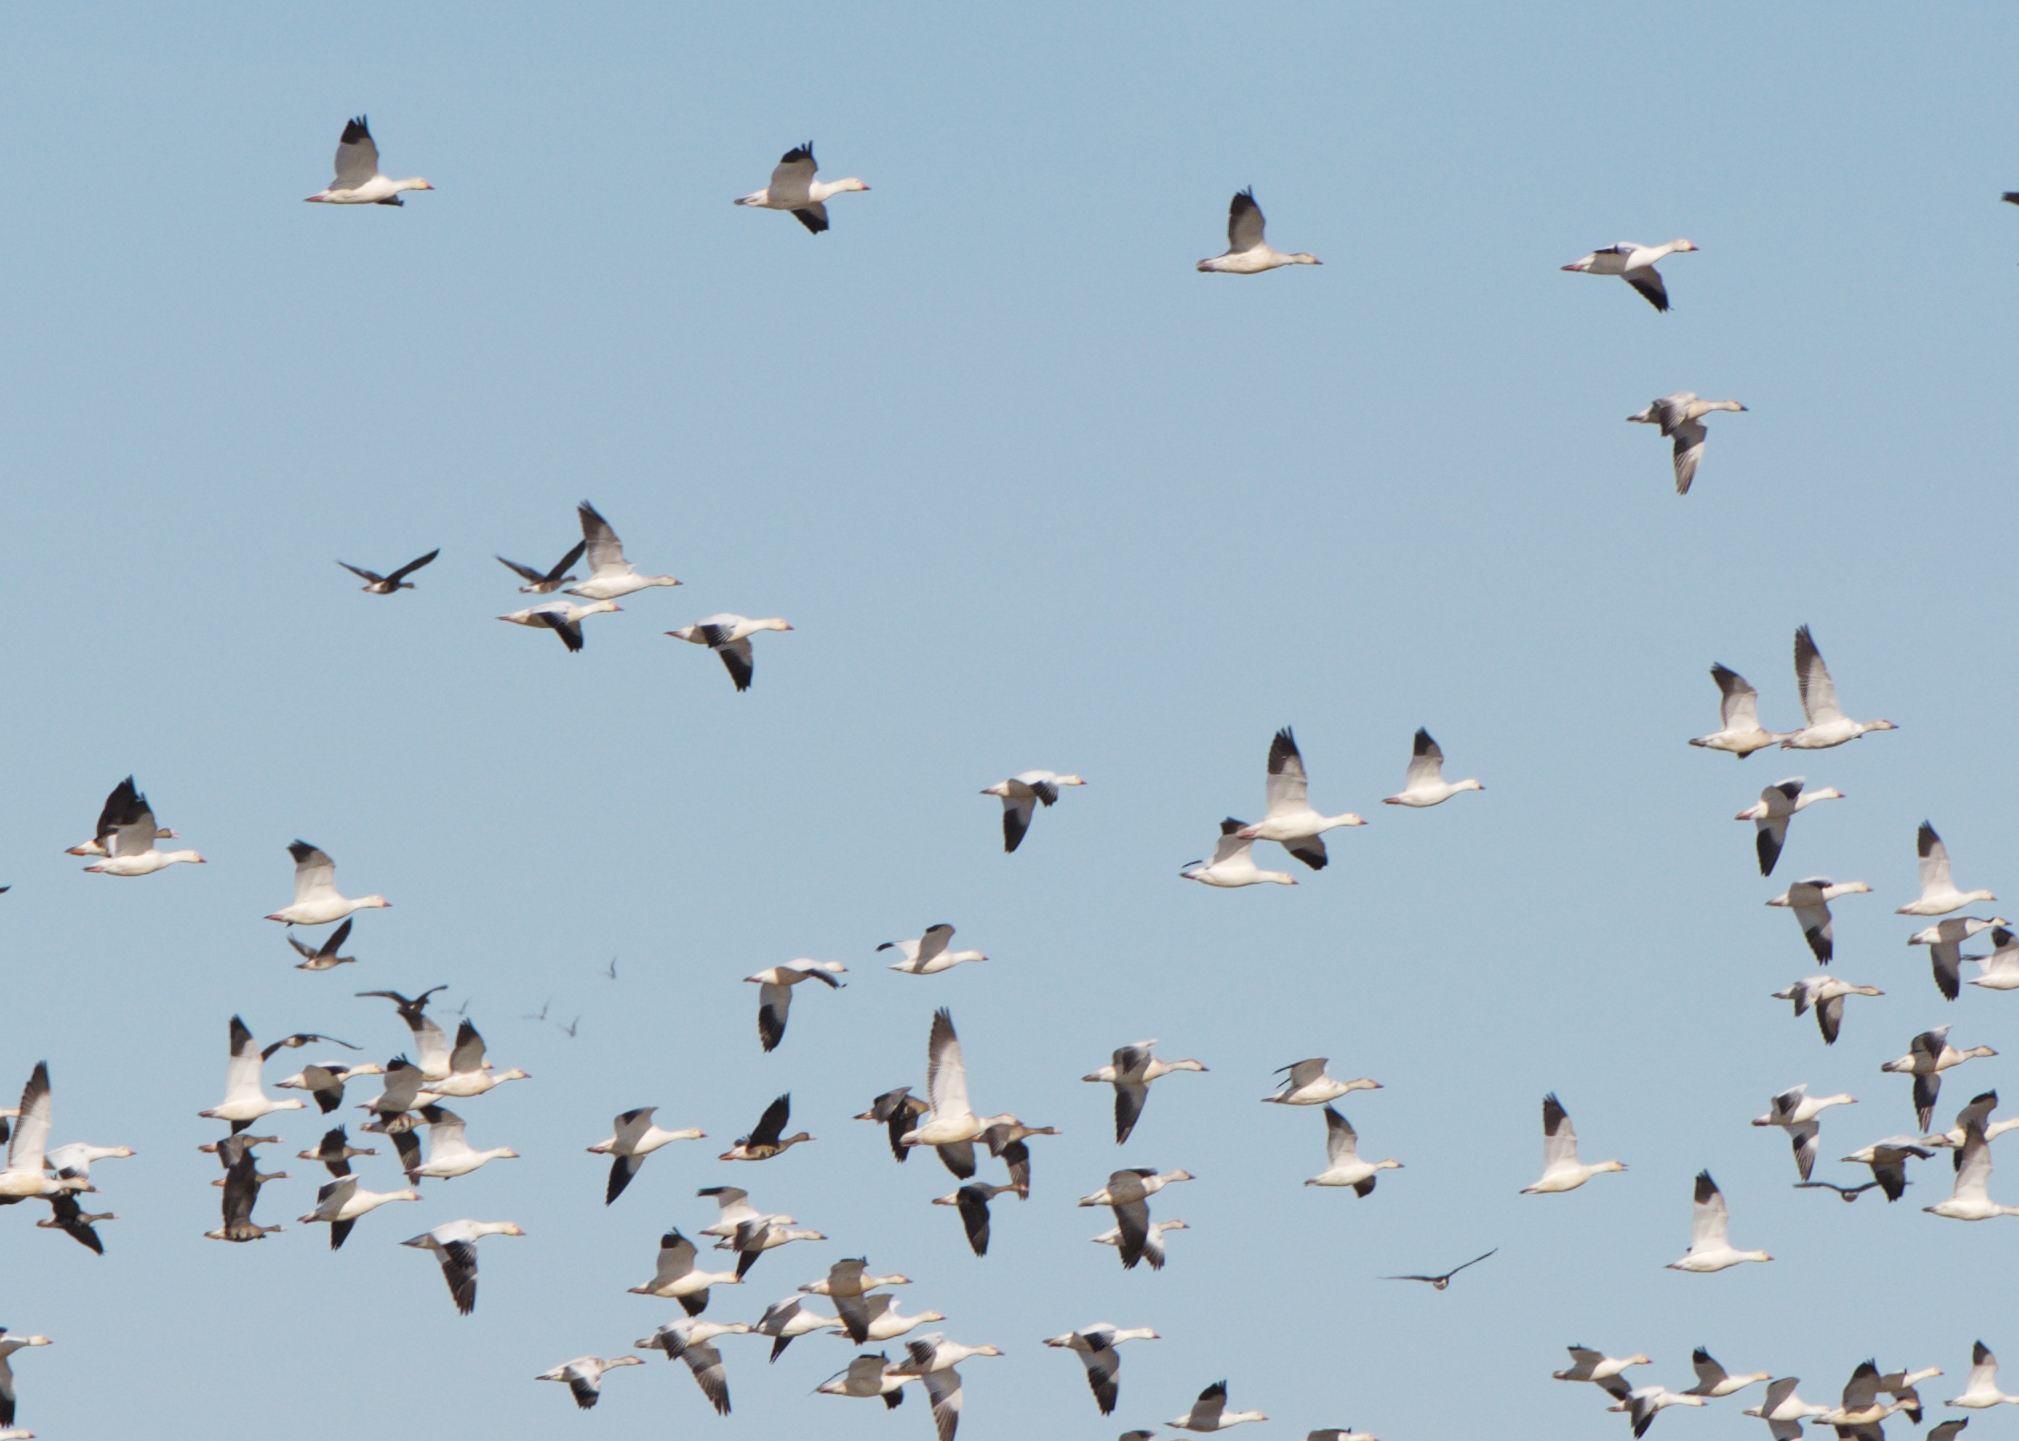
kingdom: Animalia
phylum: Chordata
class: Aves
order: Anseriformes
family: Anatidae
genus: Anser
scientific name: Anser caerulescens
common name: Snow goose
